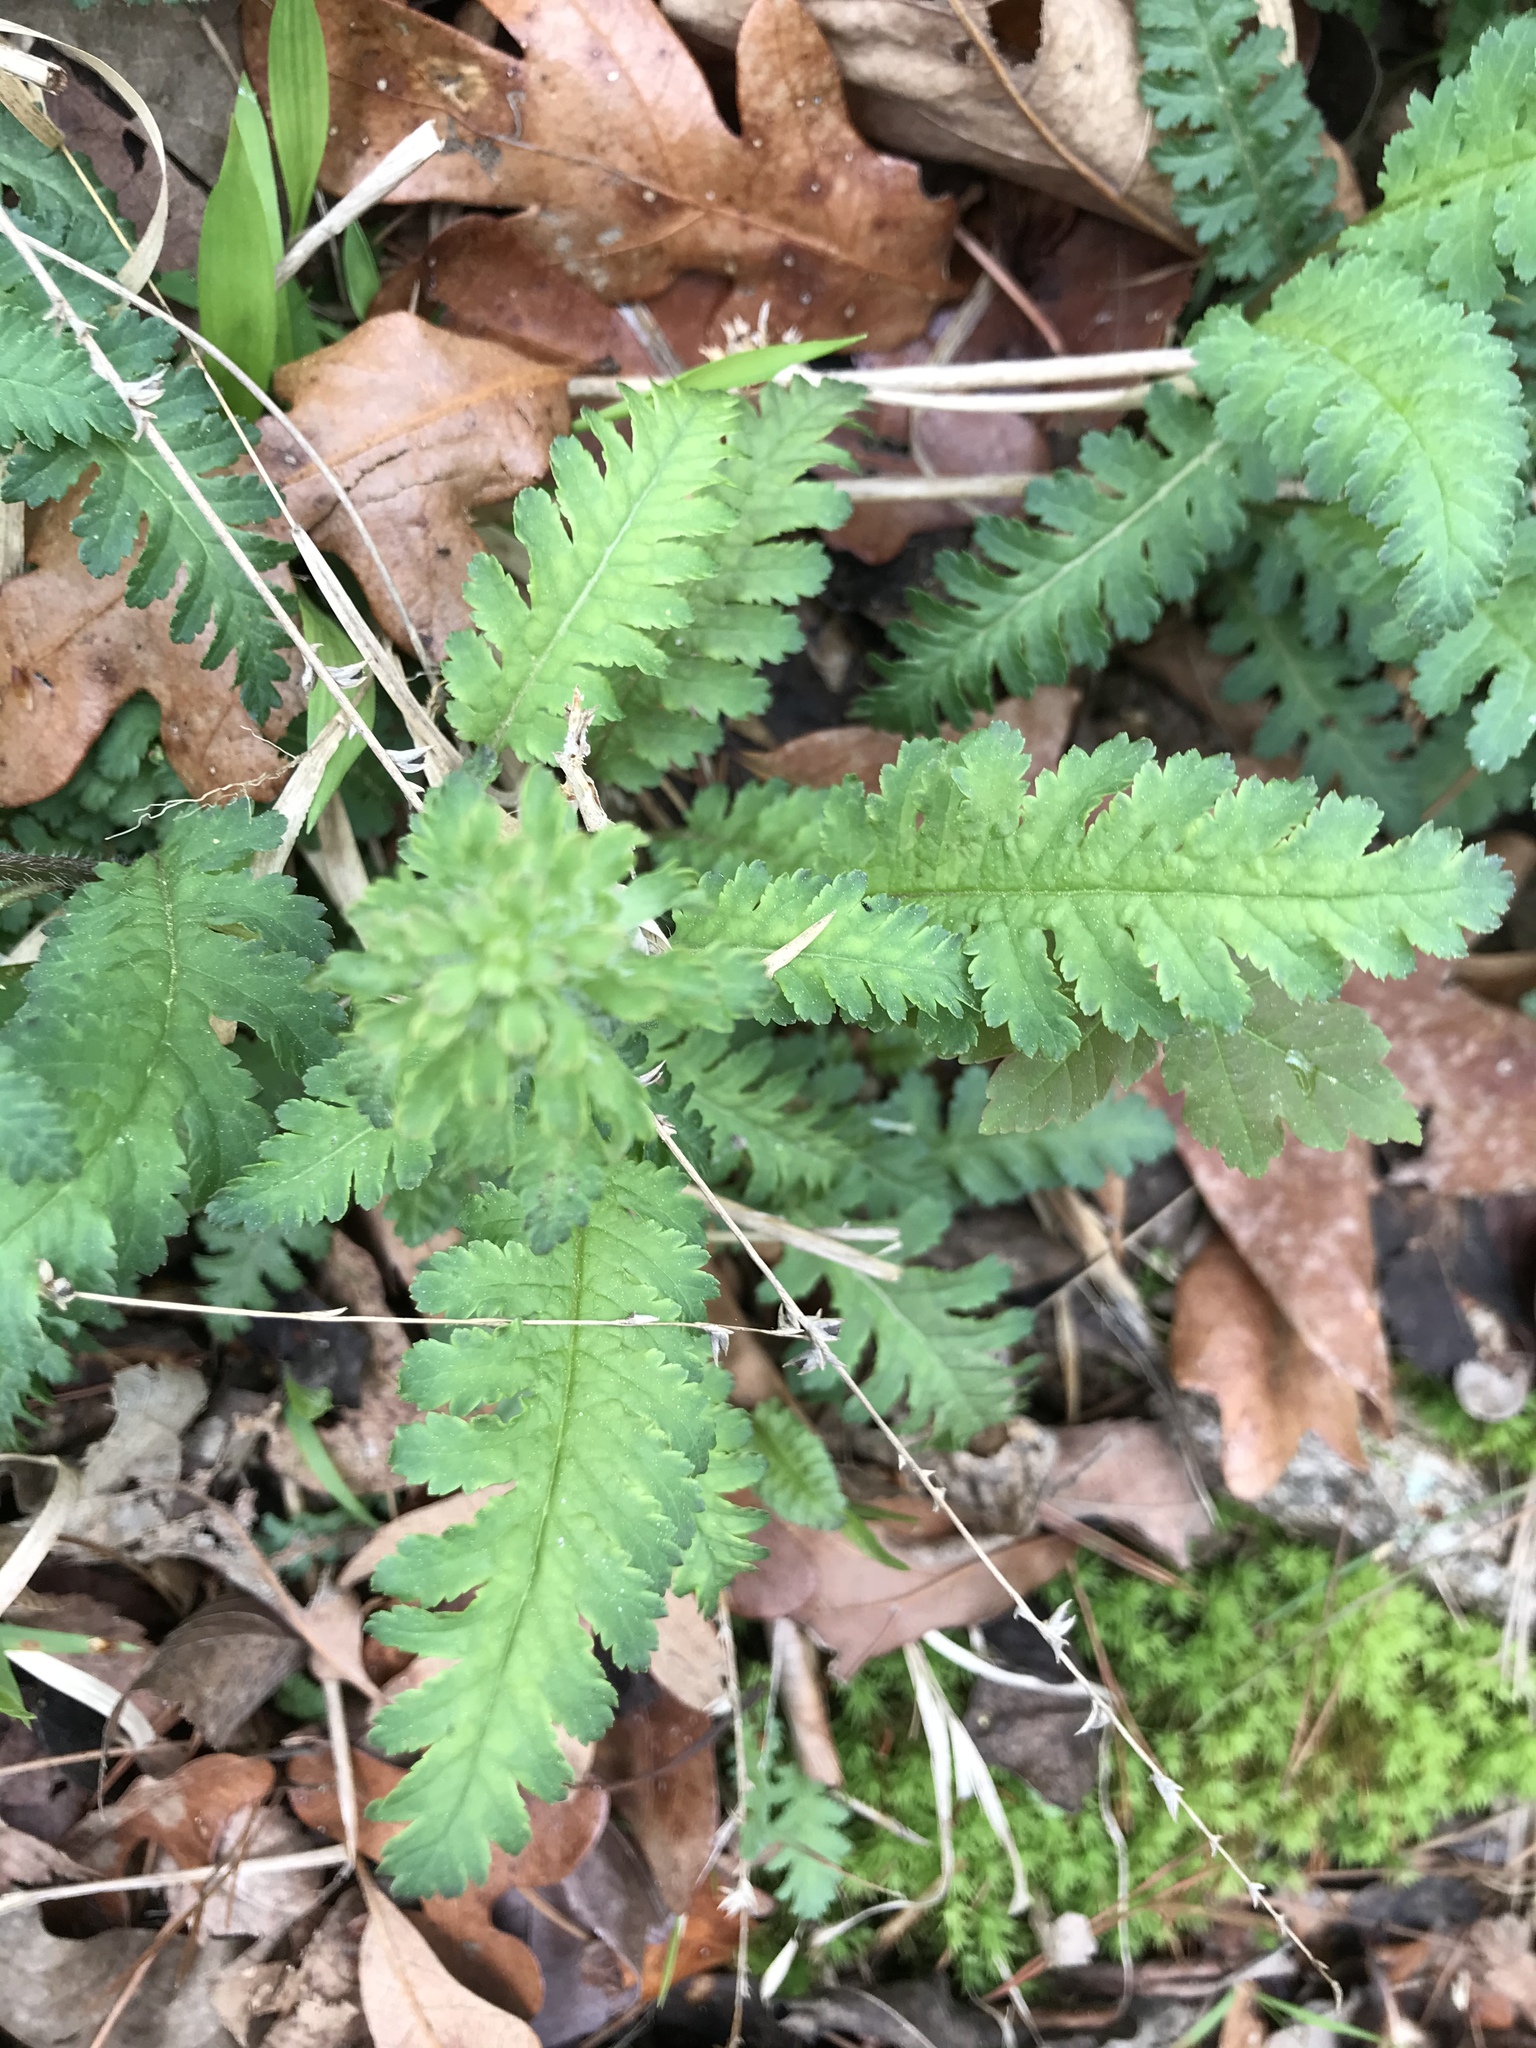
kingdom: Plantae
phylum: Tracheophyta
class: Magnoliopsida
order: Lamiales
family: Orobanchaceae
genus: Pedicularis
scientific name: Pedicularis canadensis
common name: Early lousewort
